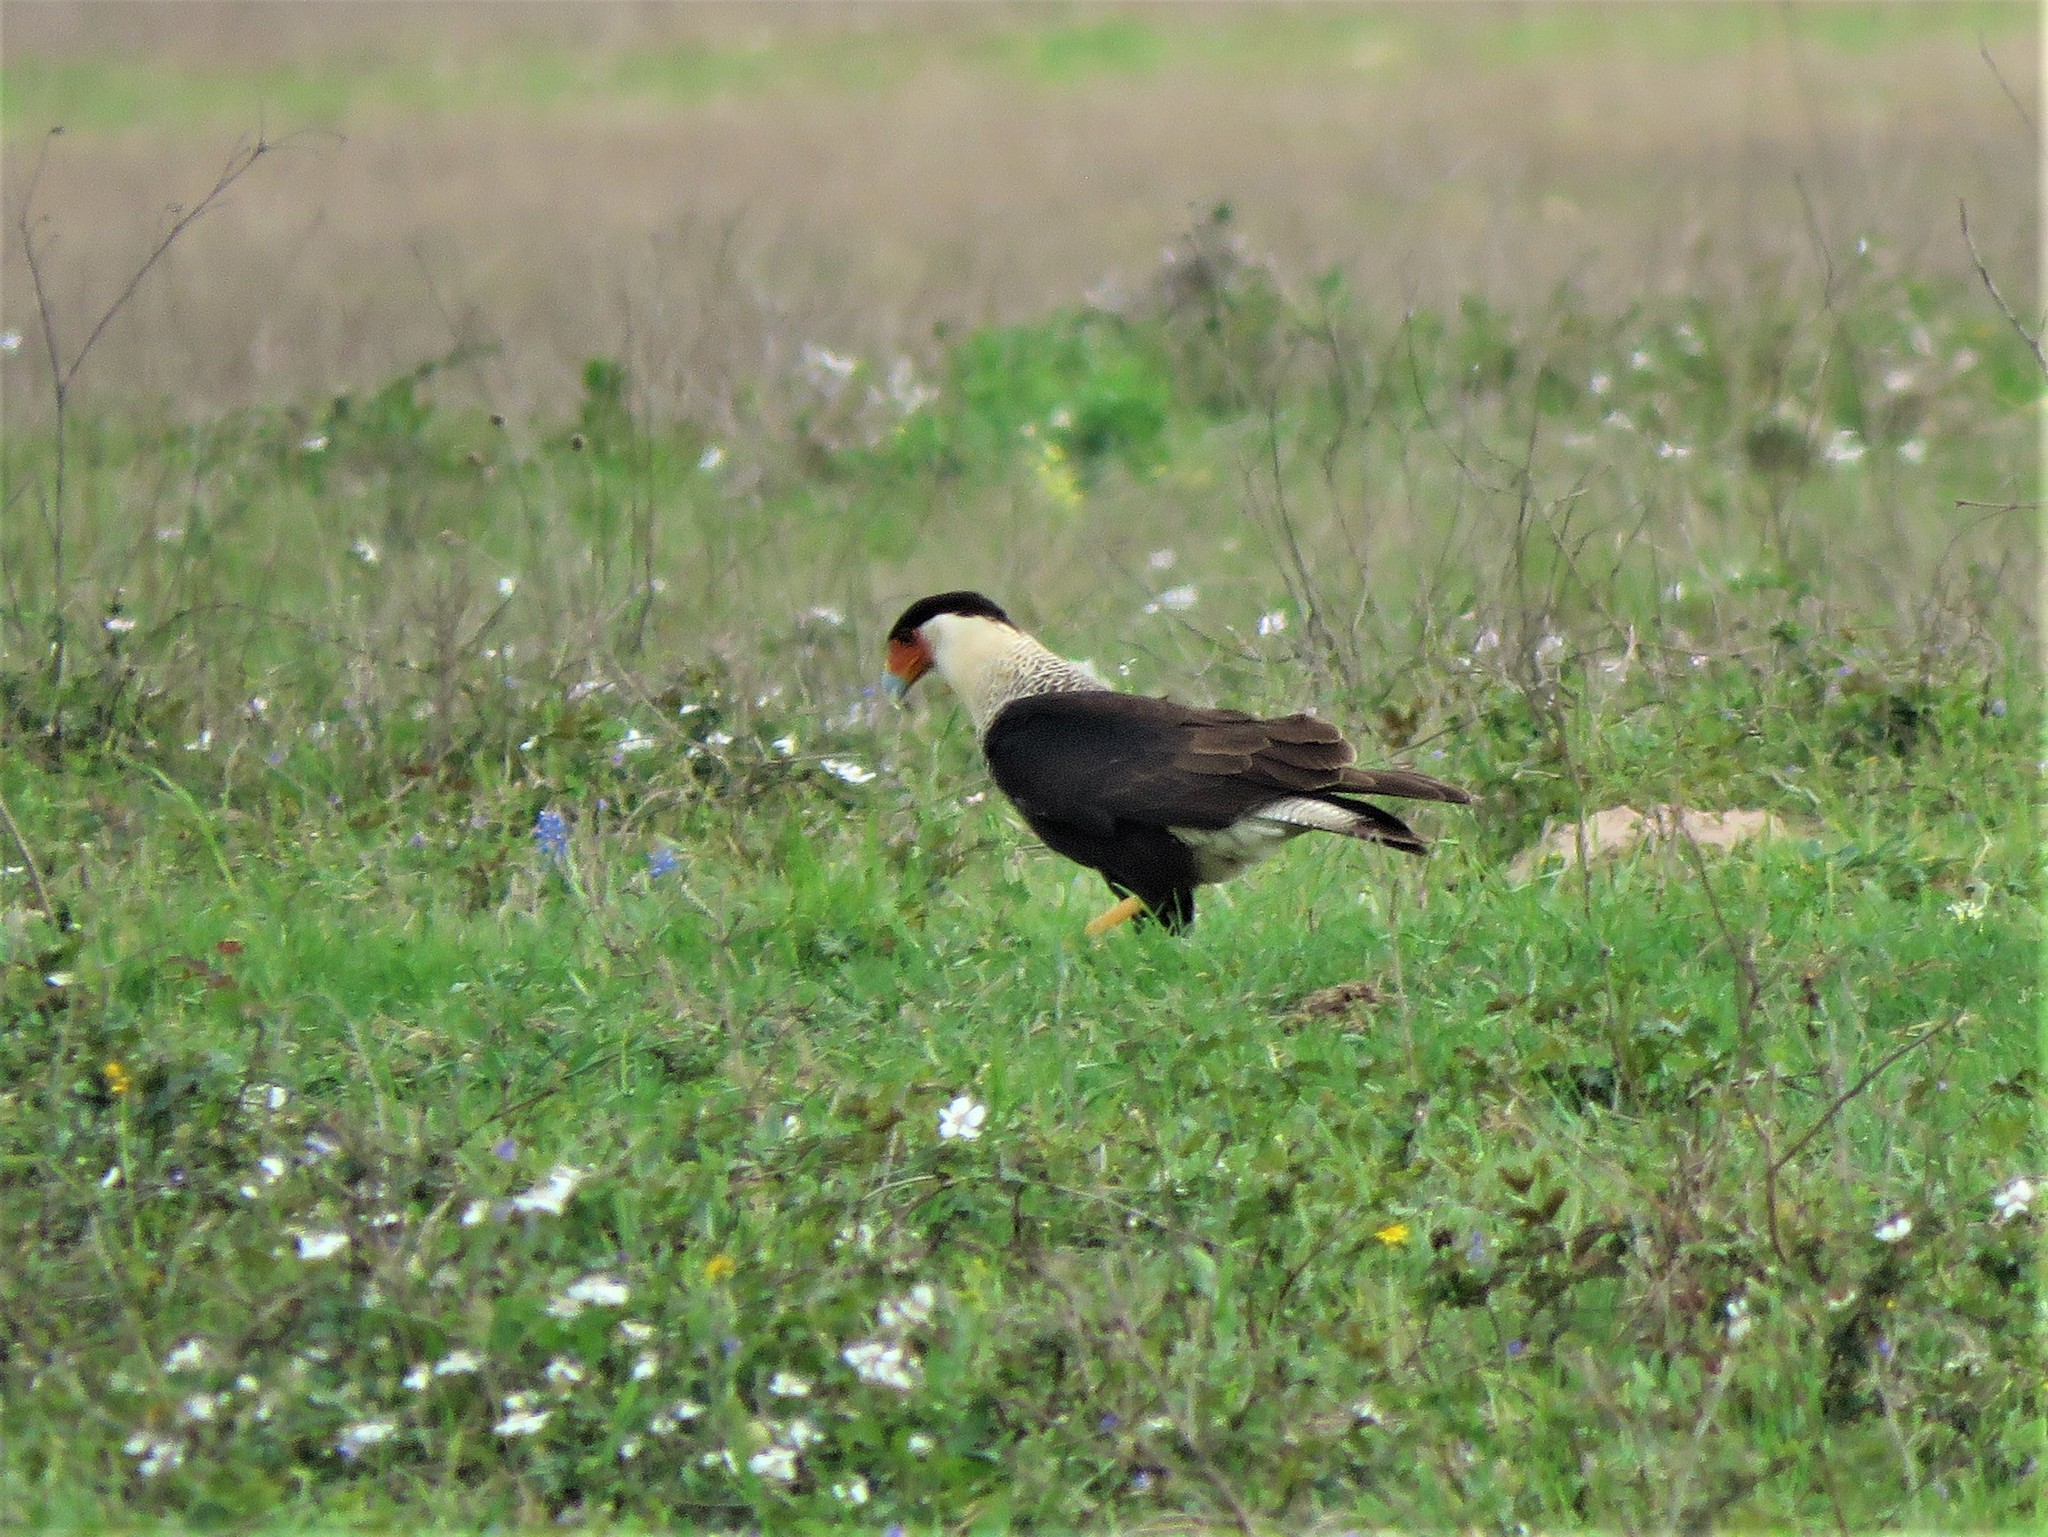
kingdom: Animalia
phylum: Chordata
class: Aves
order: Falconiformes
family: Falconidae
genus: Caracara
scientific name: Caracara plancus
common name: Southern caracara
